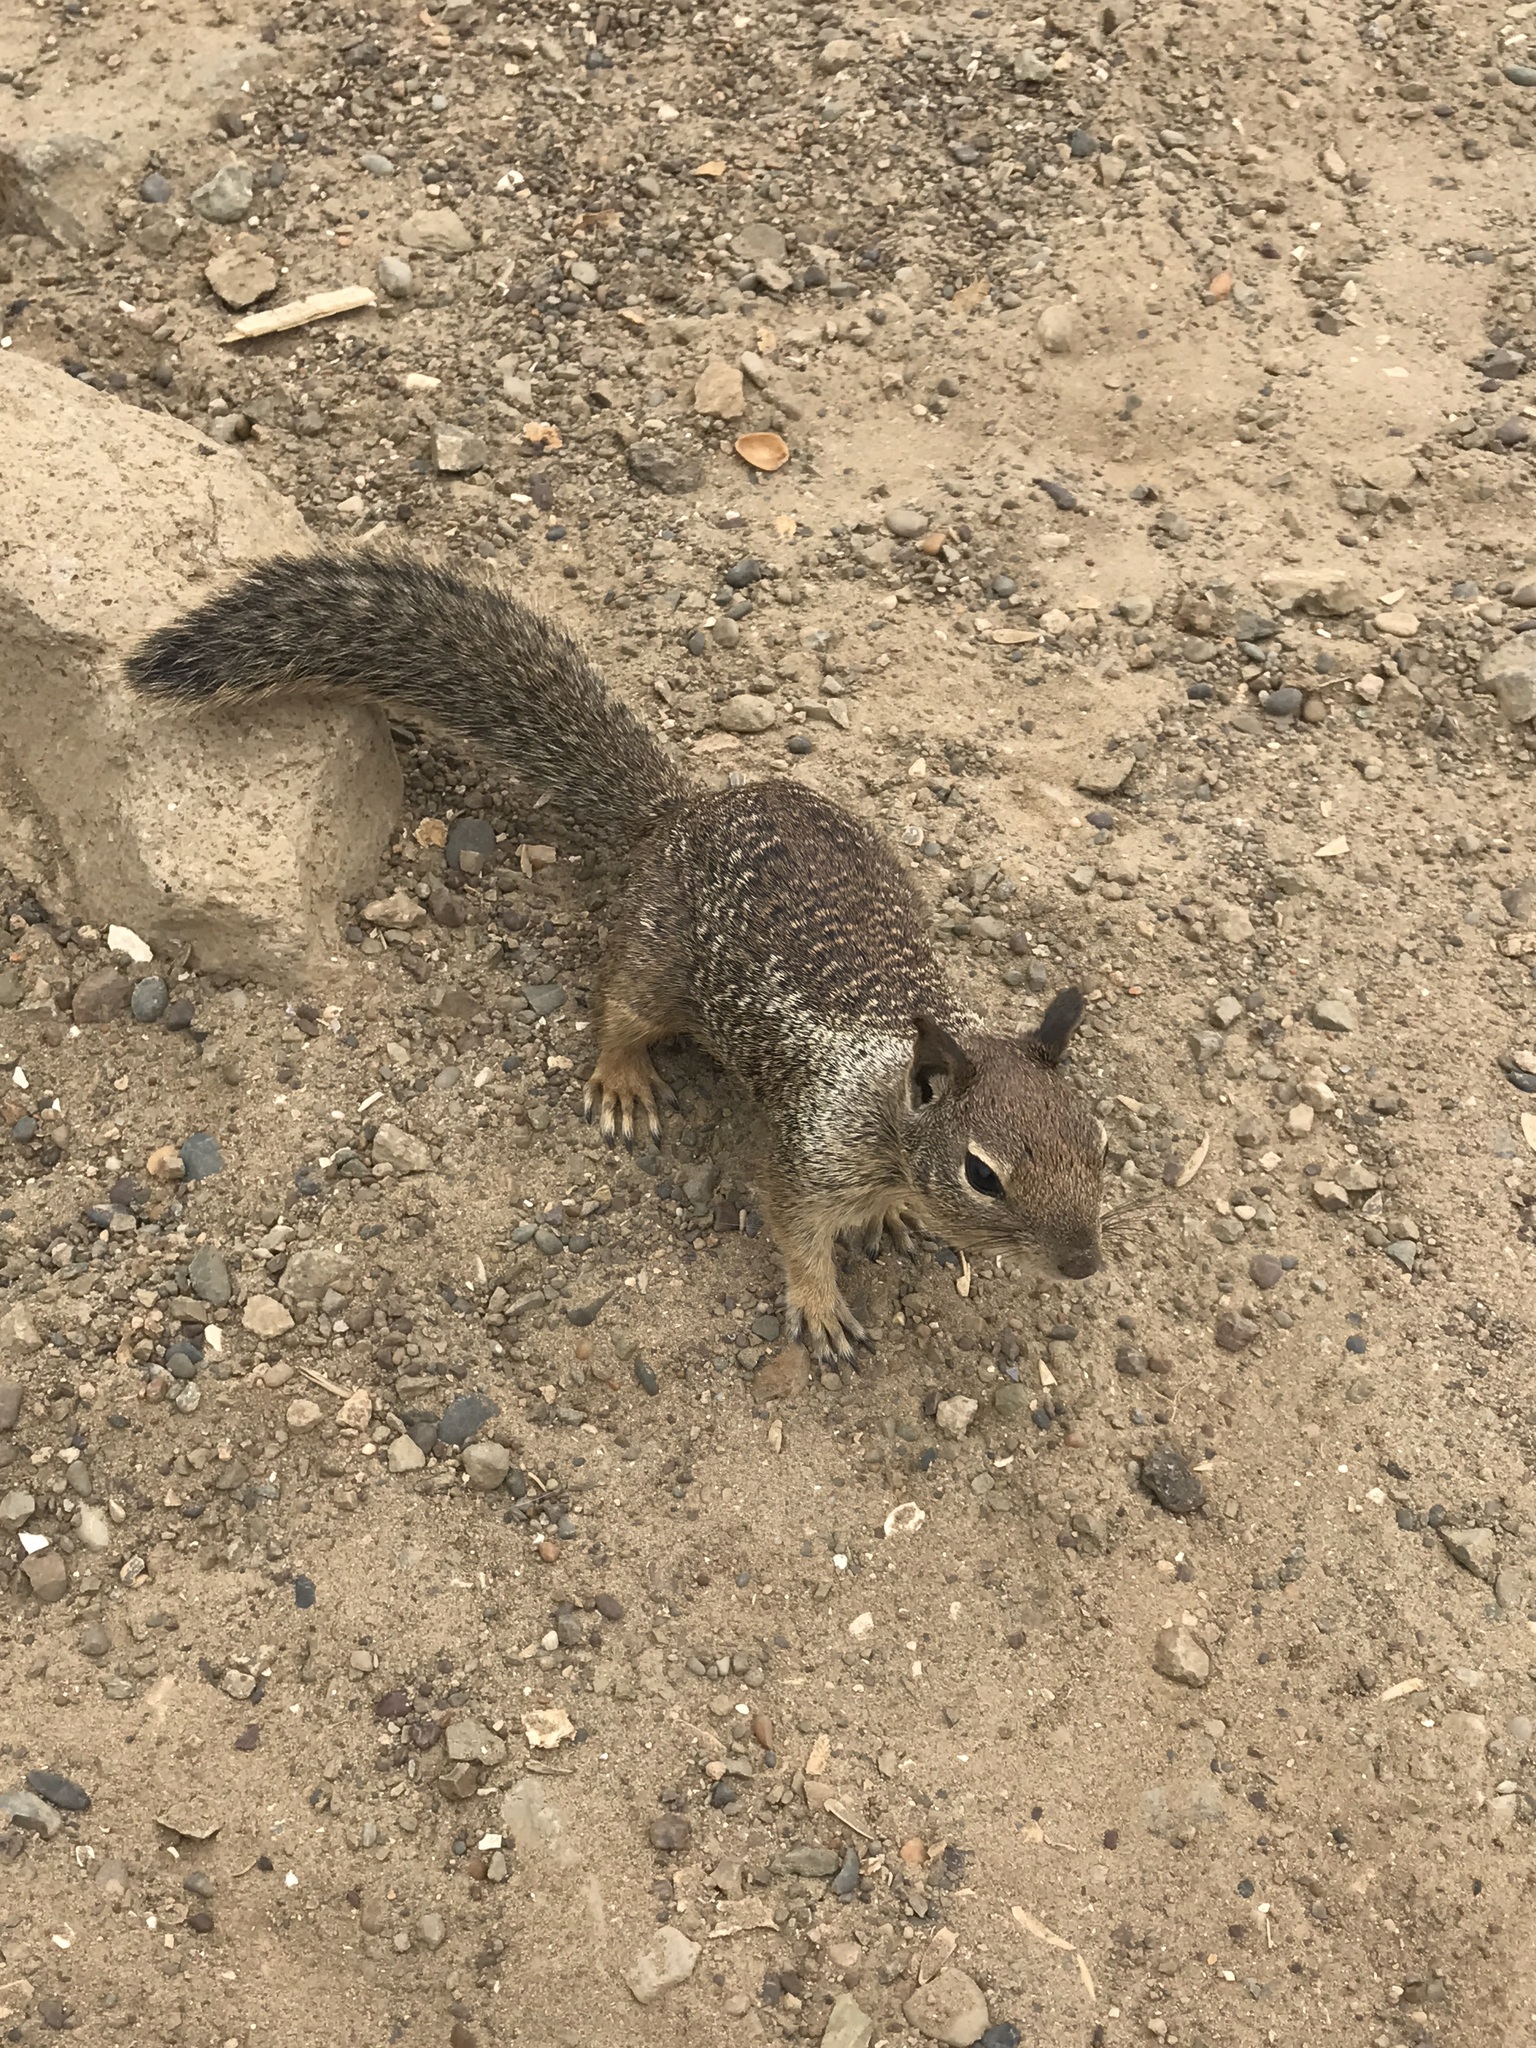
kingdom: Animalia
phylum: Chordata
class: Mammalia
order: Rodentia
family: Sciuridae
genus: Otospermophilus
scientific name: Otospermophilus beecheyi
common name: California ground squirrel
